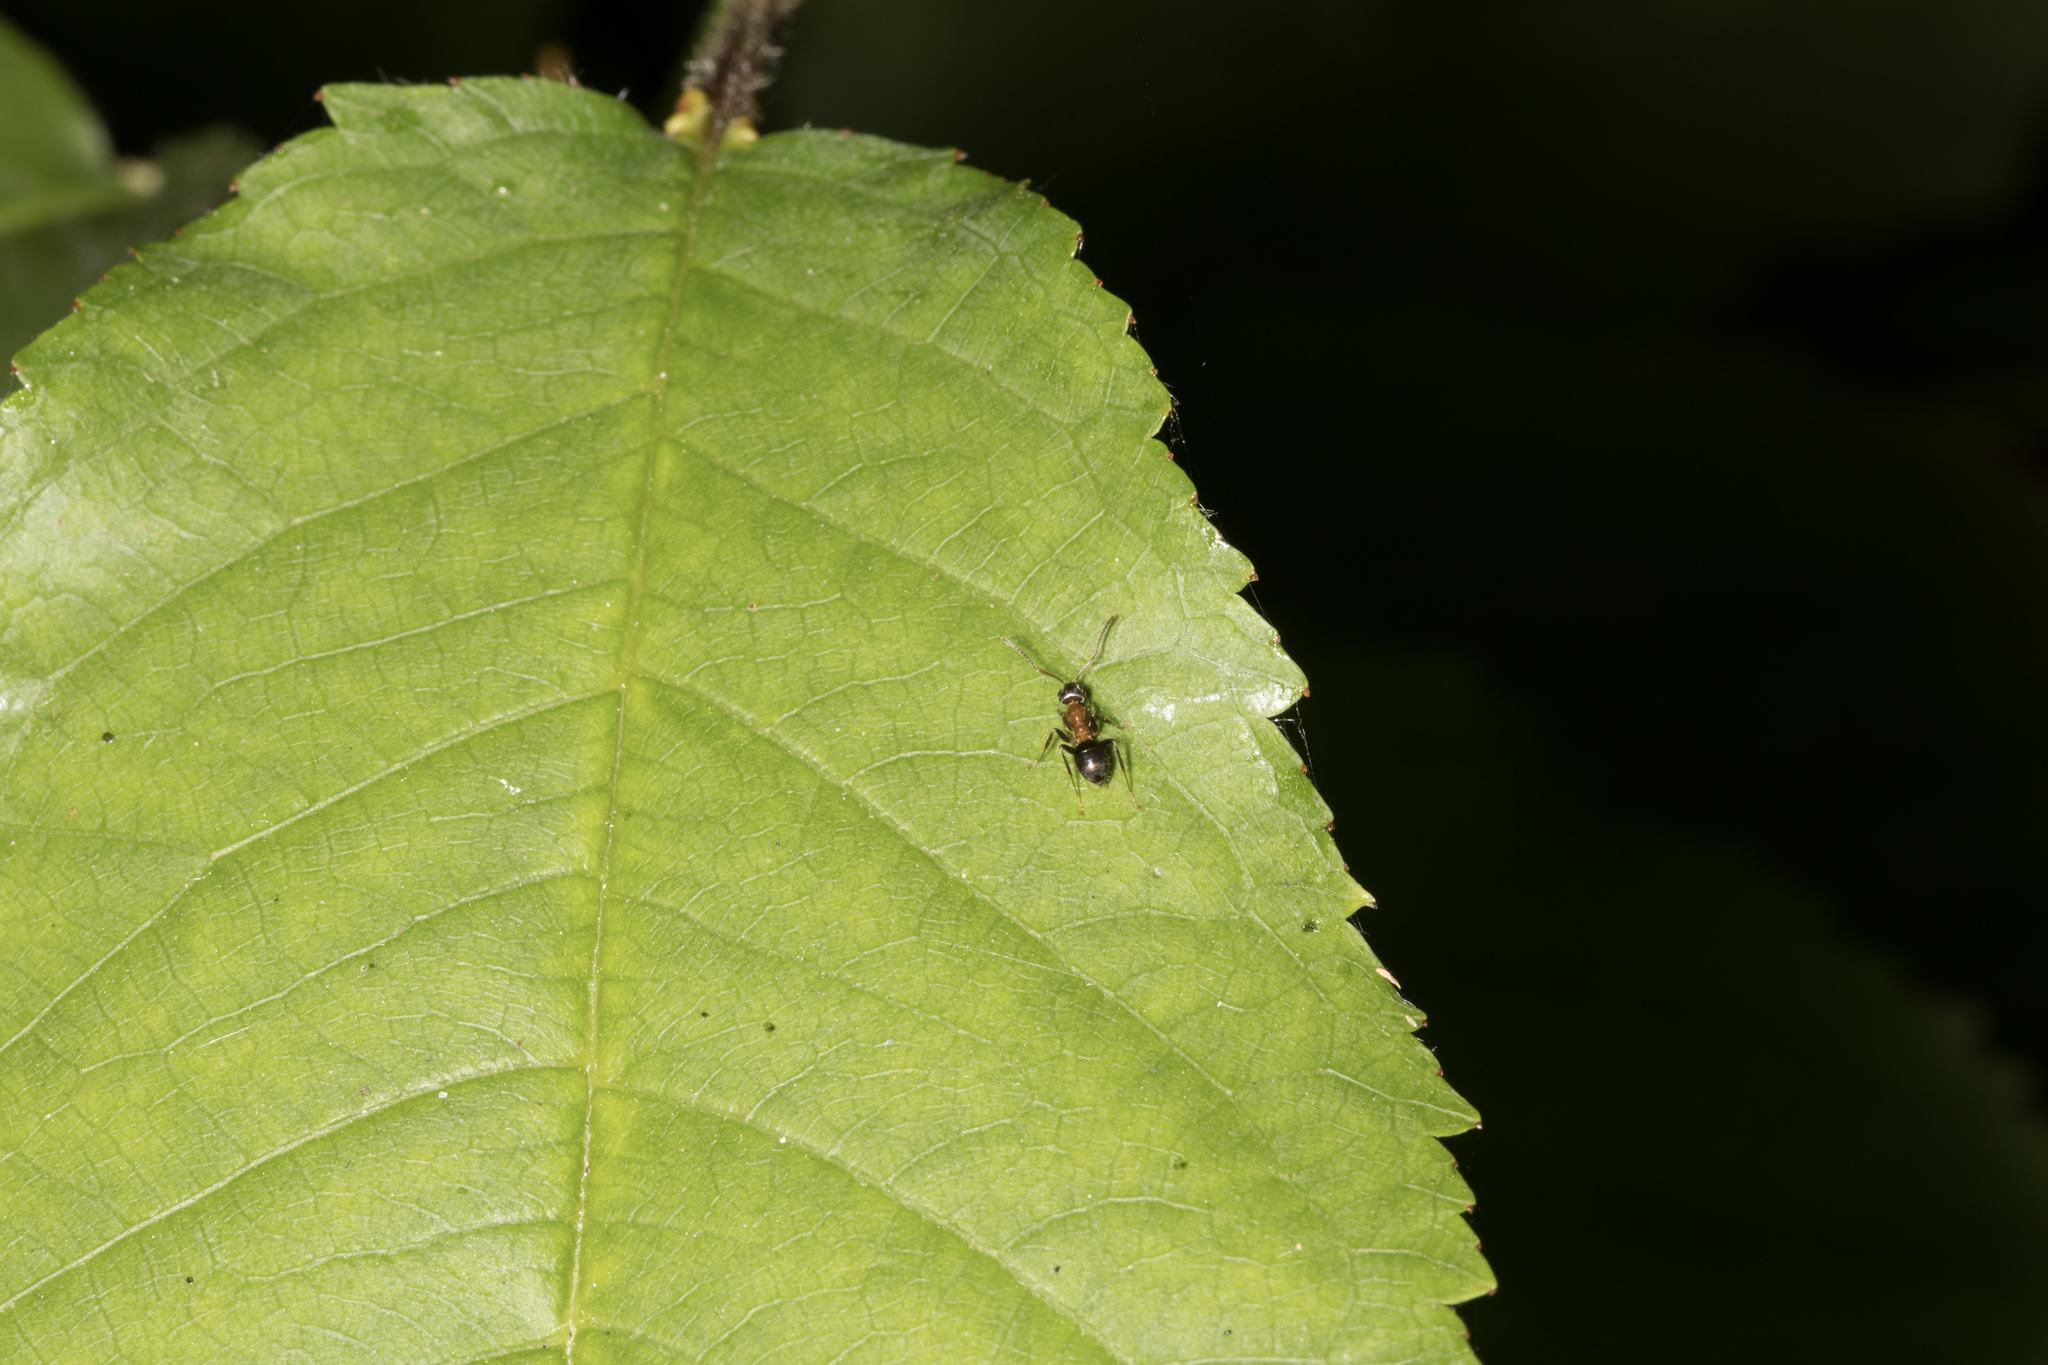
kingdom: Animalia
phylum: Arthropoda
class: Insecta
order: Hymenoptera
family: Formicidae
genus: Lasius
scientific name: Lasius emarginatus
